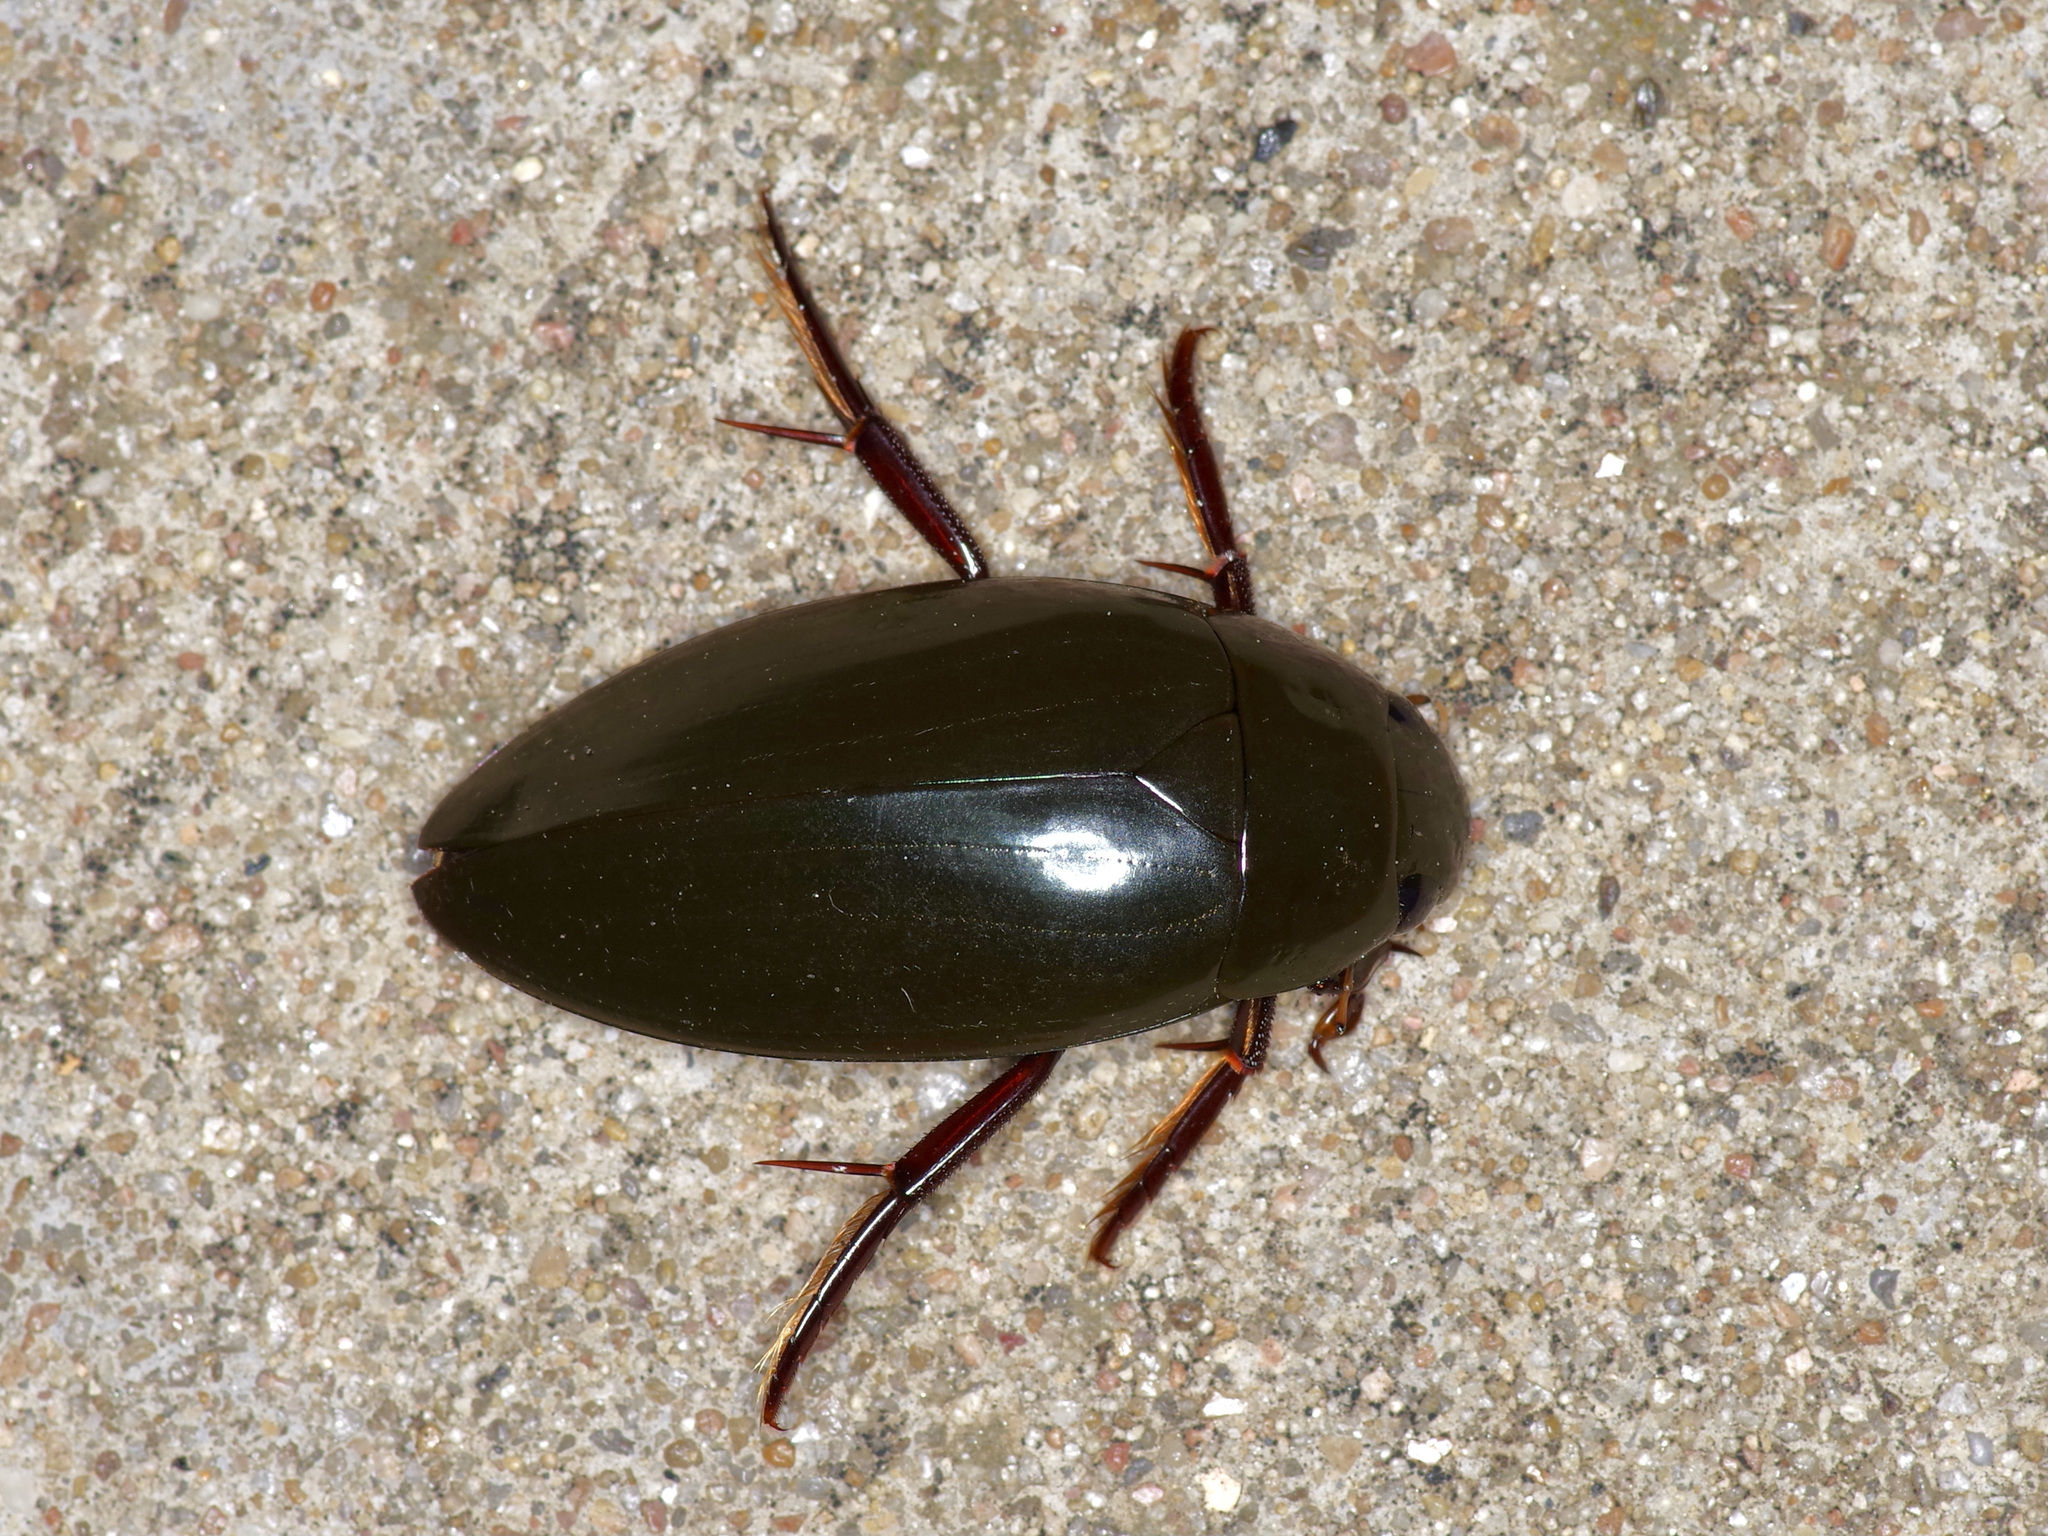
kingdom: Animalia
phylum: Arthropoda
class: Insecta
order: Coleoptera
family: Hydrophilidae
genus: Hydrophilus
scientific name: Hydrophilus insularis
